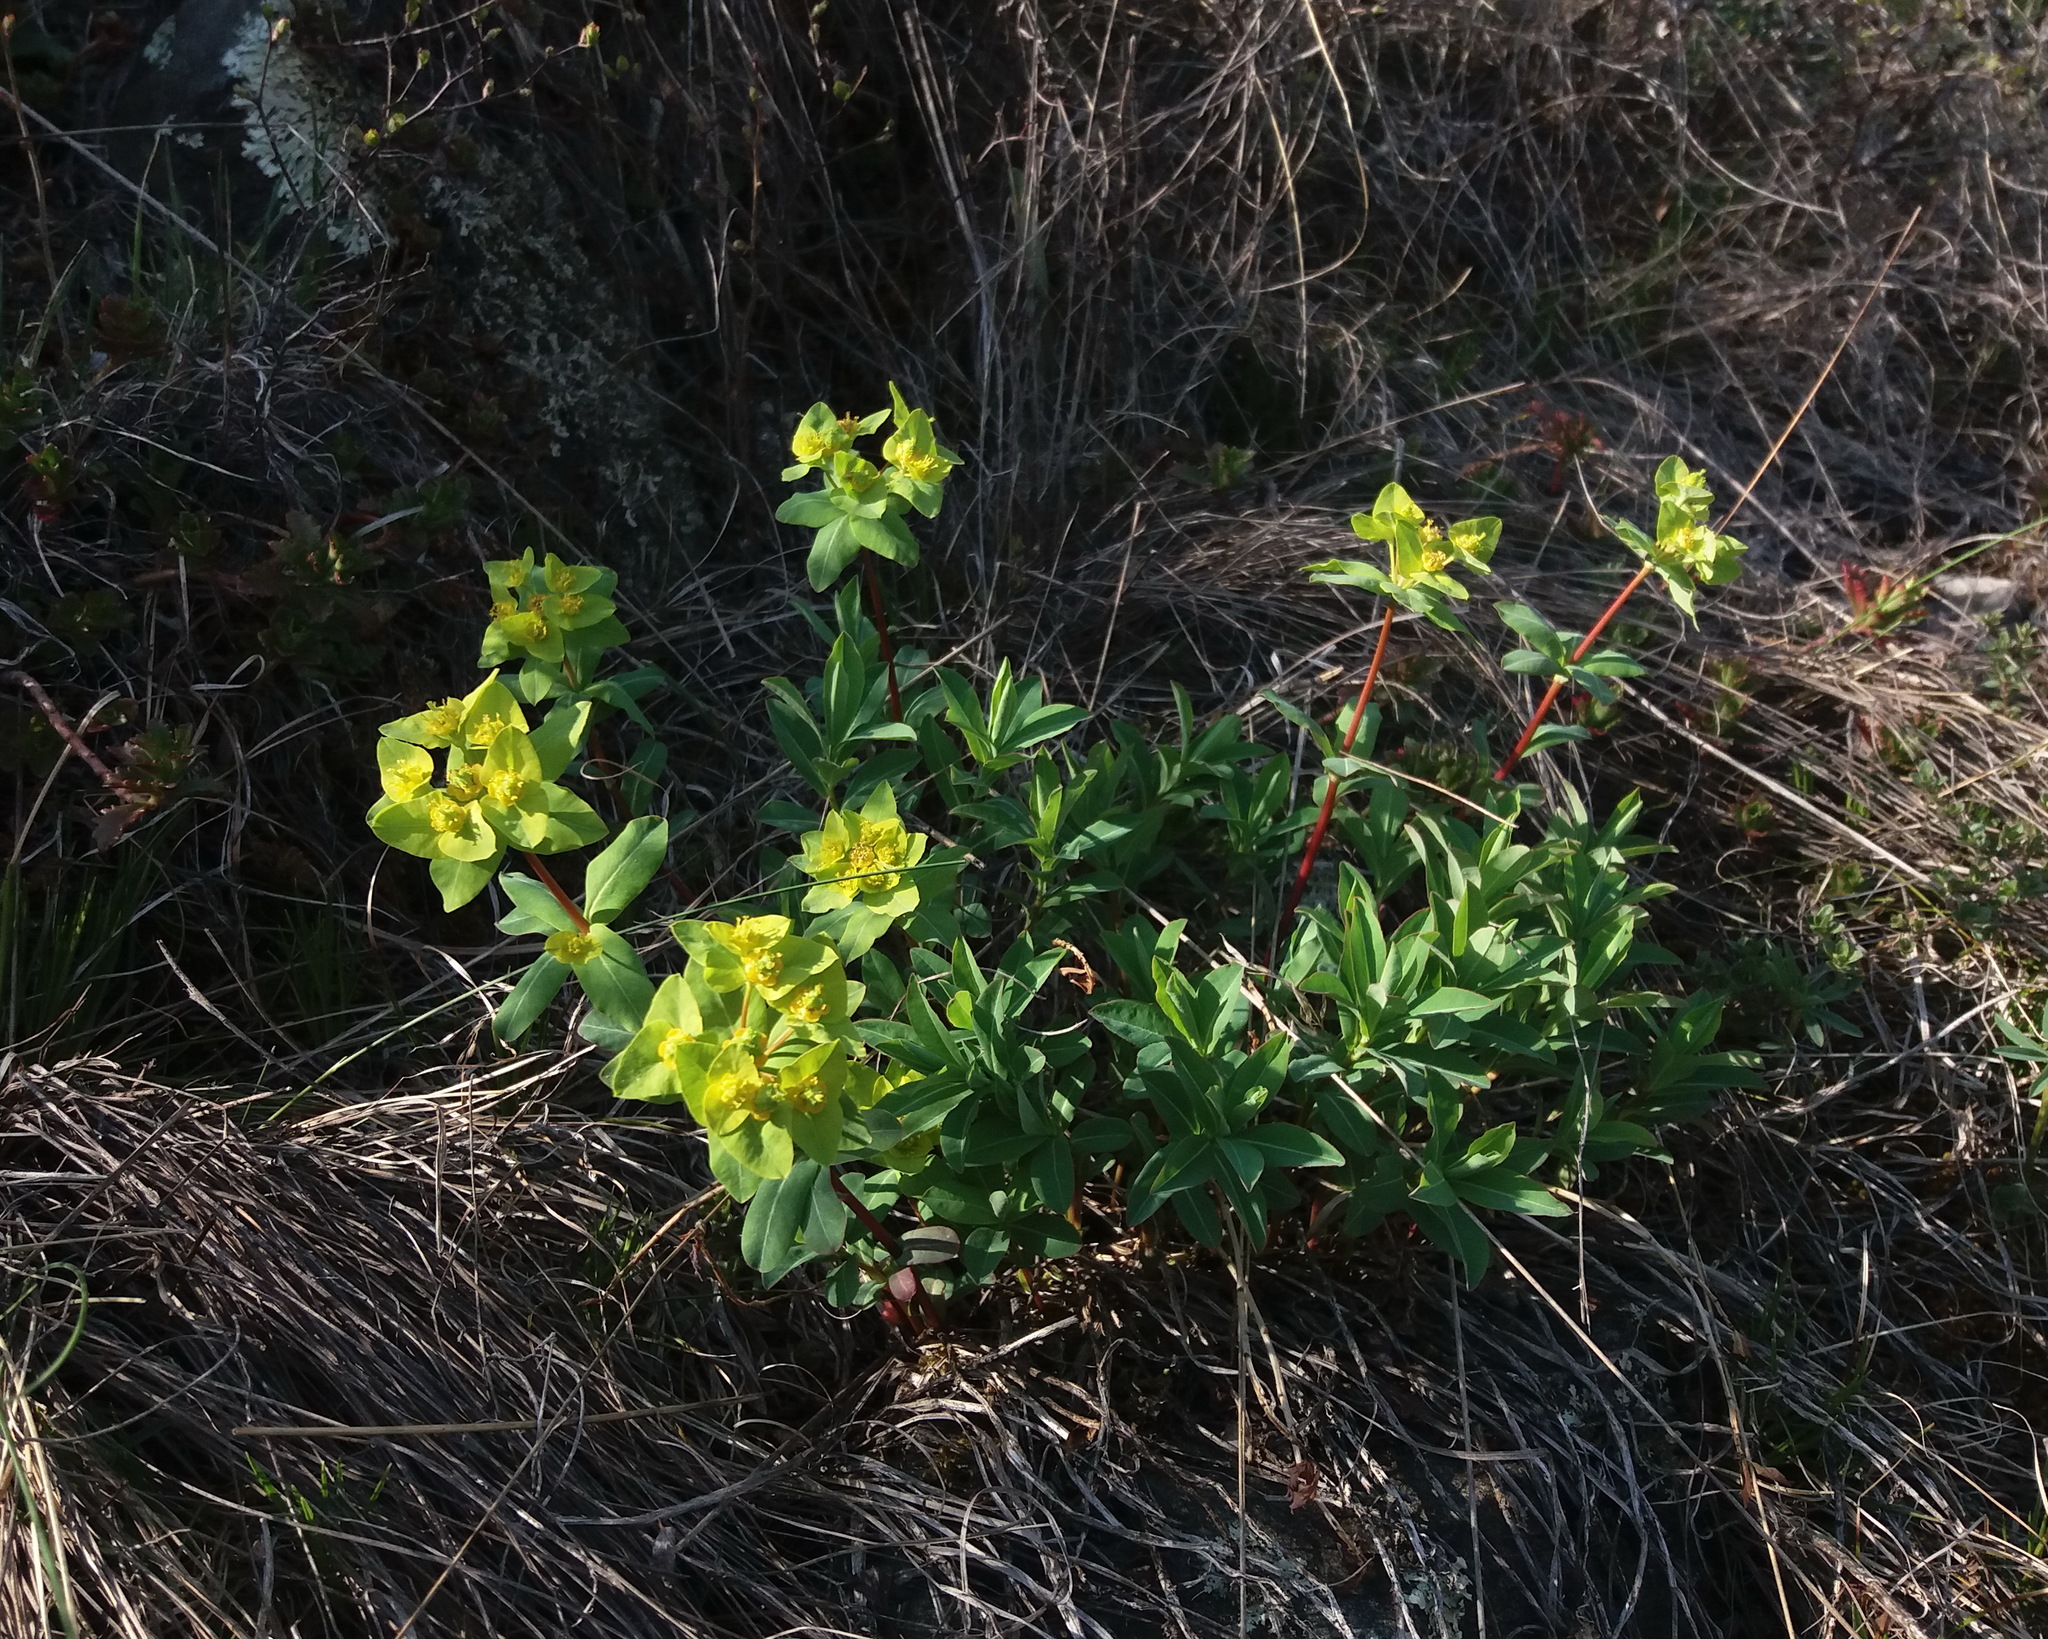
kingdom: Plantae
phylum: Tracheophyta
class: Magnoliopsida
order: Malpighiales
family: Euphorbiaceae
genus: Euphorbia
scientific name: Euphorbia altaica
